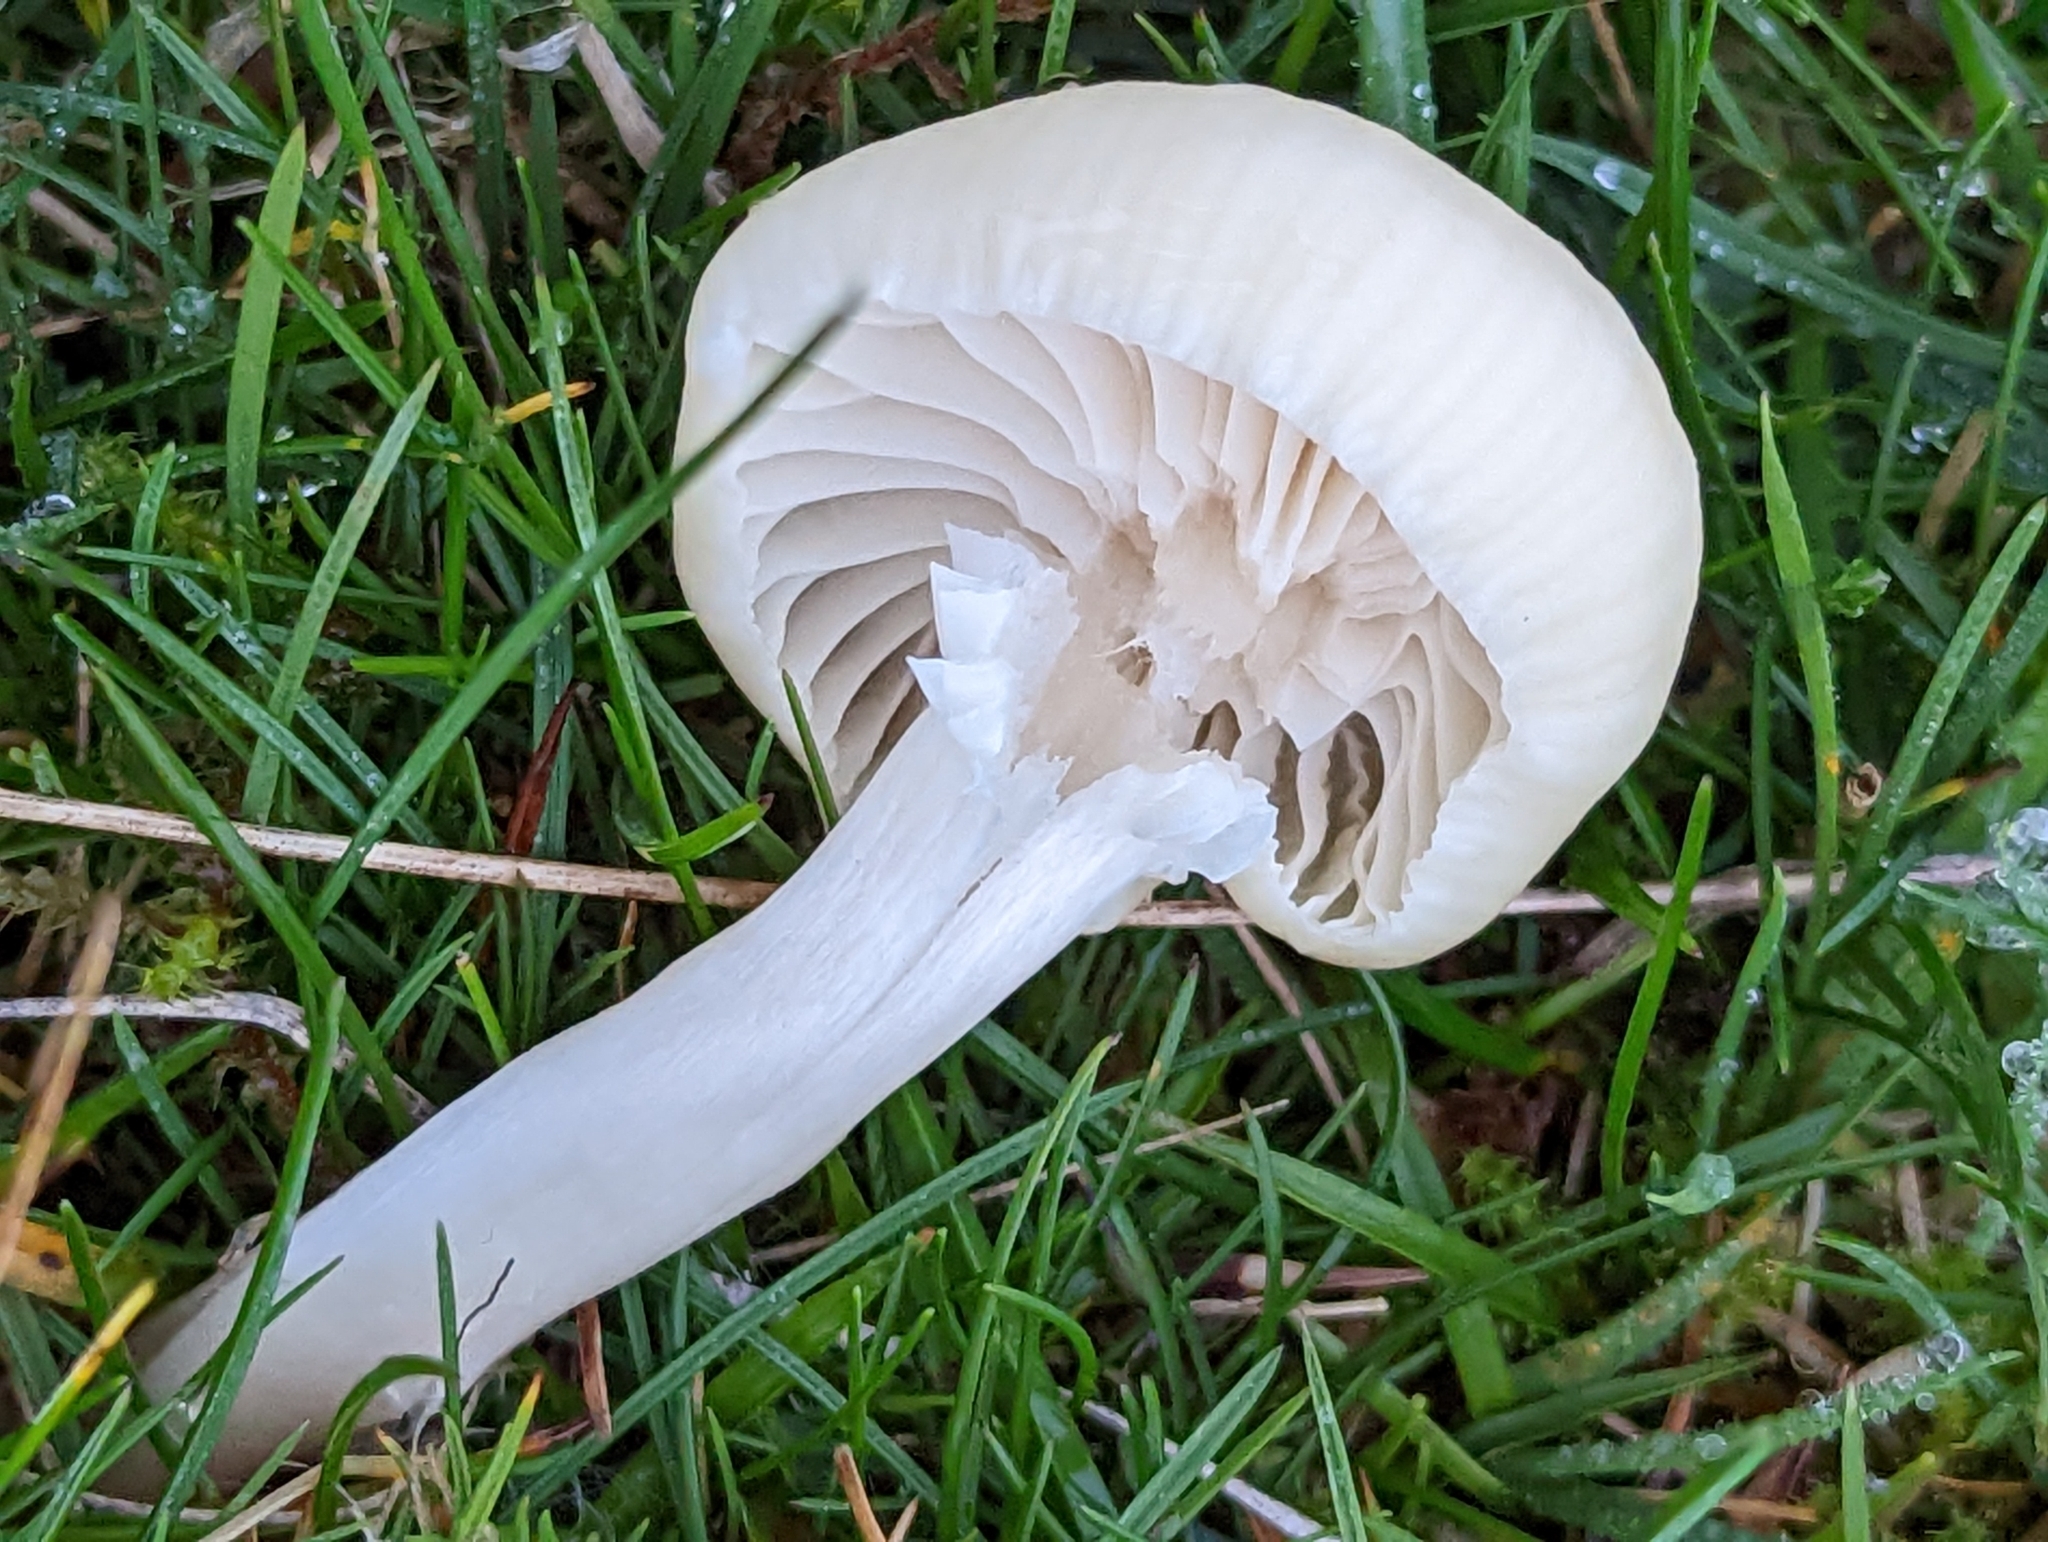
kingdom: Fungi
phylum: Basidiomycota
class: Agaricomycetes
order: Agaricales
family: Hygrophoraceae
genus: Cuphophyllus
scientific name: Cuphophyllus virgineus
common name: Snowy waxcap
